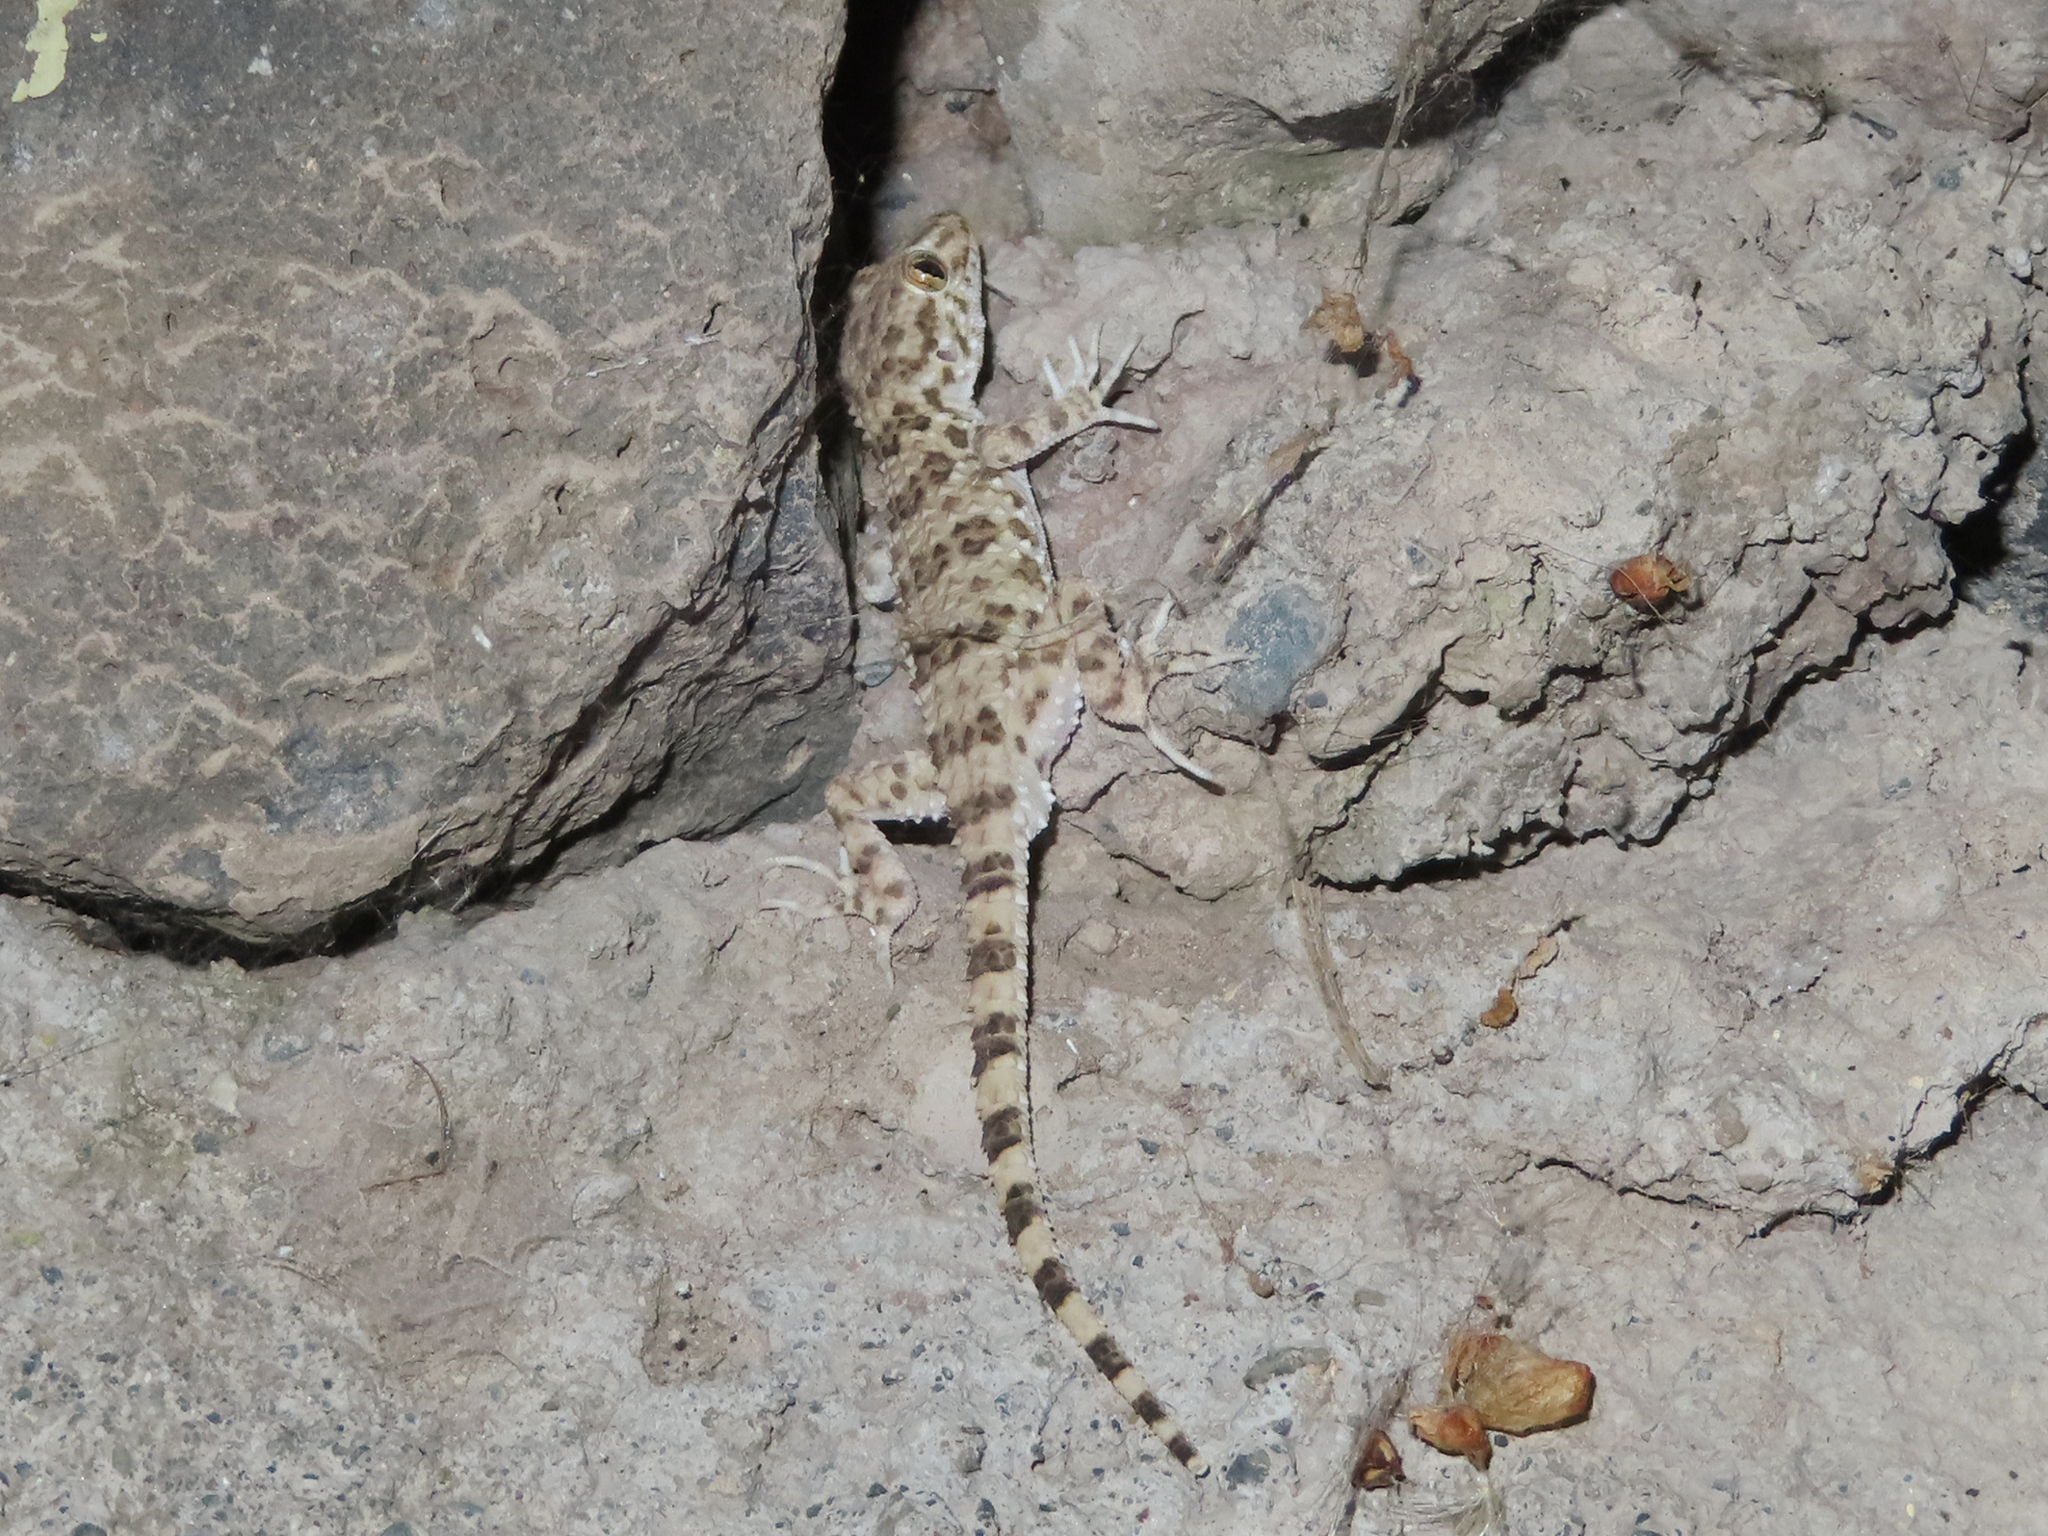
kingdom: Animalia
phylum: Chordata
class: Squamata
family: Gekkonidae
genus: Tenuidactylus
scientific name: Tenuidactylus caspius
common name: Caspian bent-toed gecko
